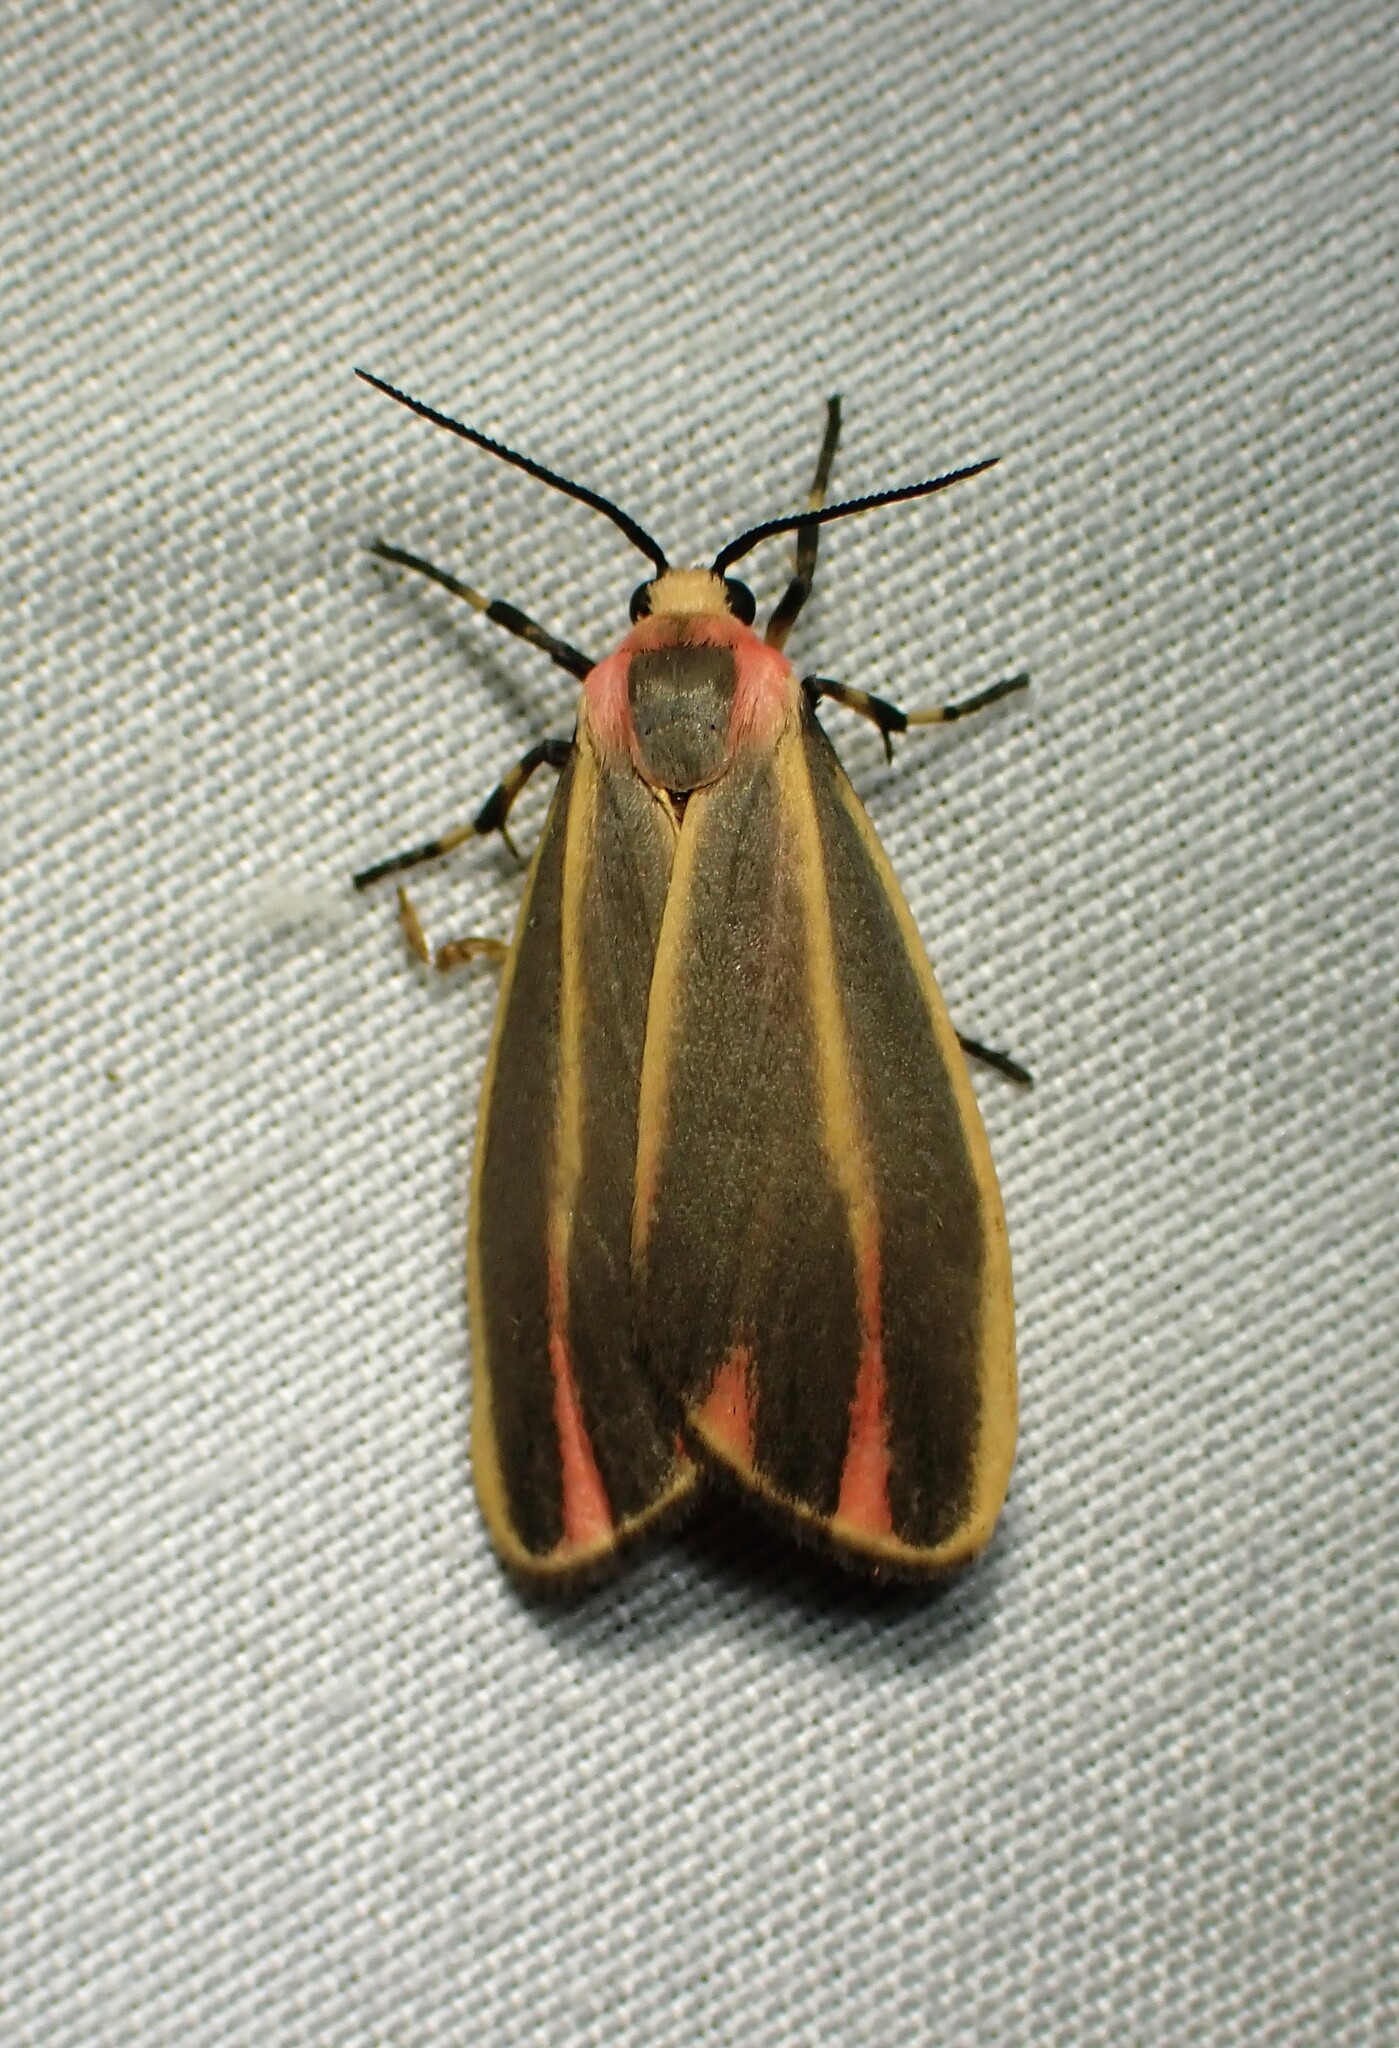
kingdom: Animalia
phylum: Arthropoda
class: Insecta
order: Lepidoptera
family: Erebidae
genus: Hypoprepia
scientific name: Hypoprepia fucosa
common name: Painted lichen moth
